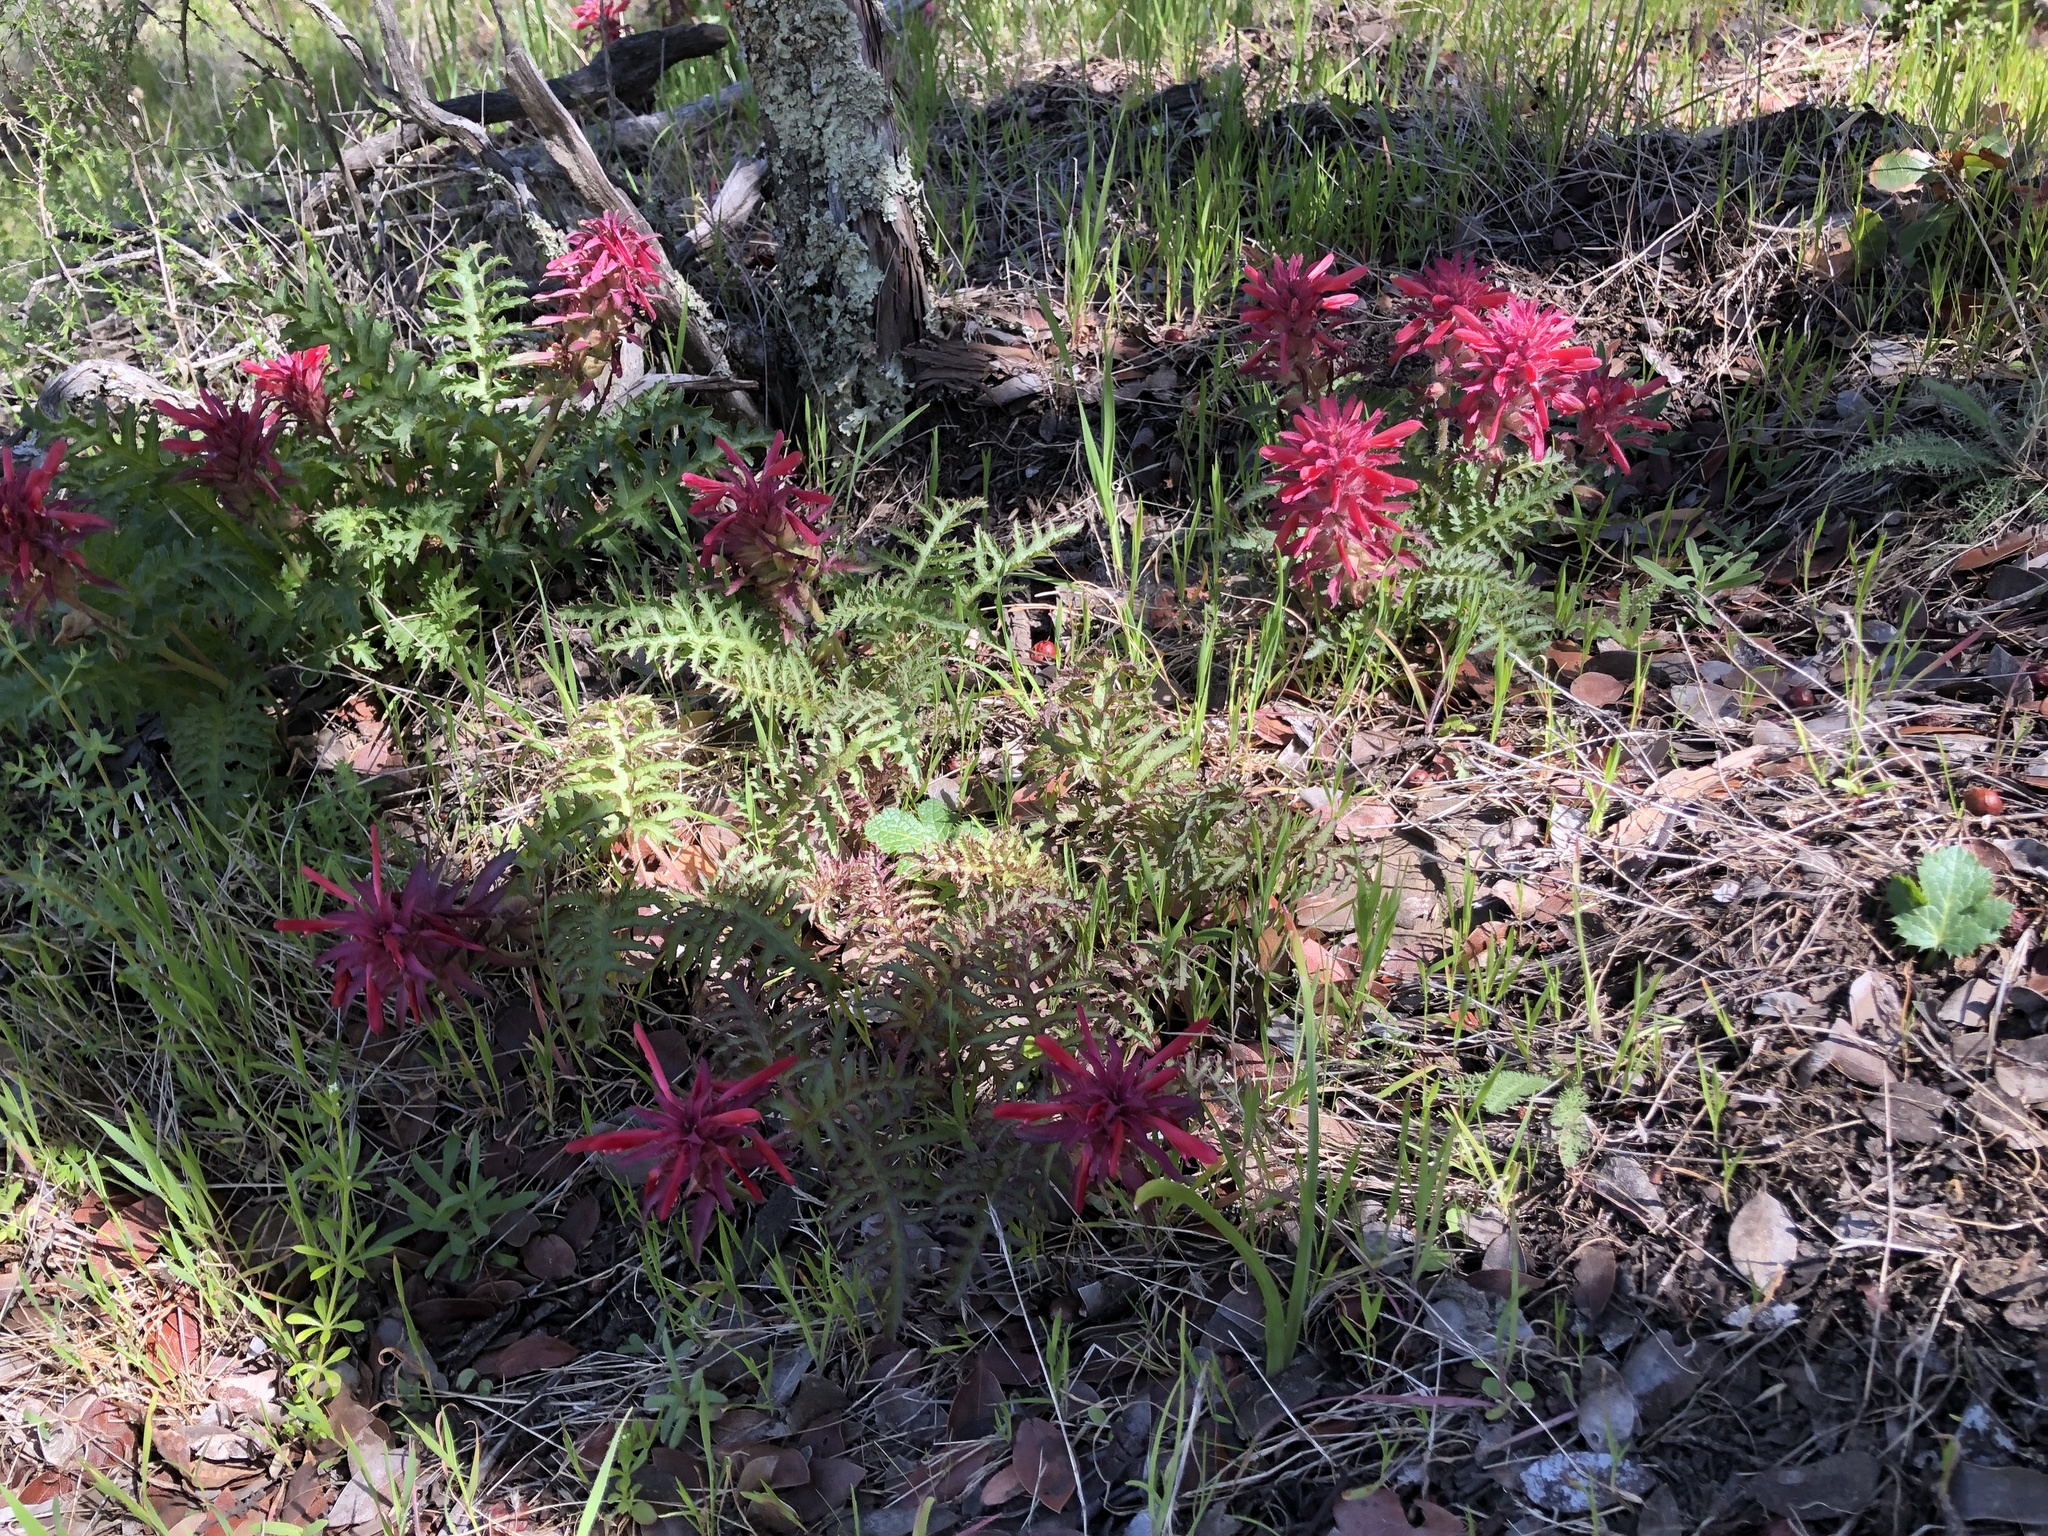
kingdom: Plantae
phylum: Tracheophyta
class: Magnoliopsida
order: Lamiales
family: Orobanchaceae
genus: Pedicularis
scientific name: Pedicularis densiflora
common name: Indian warrior
